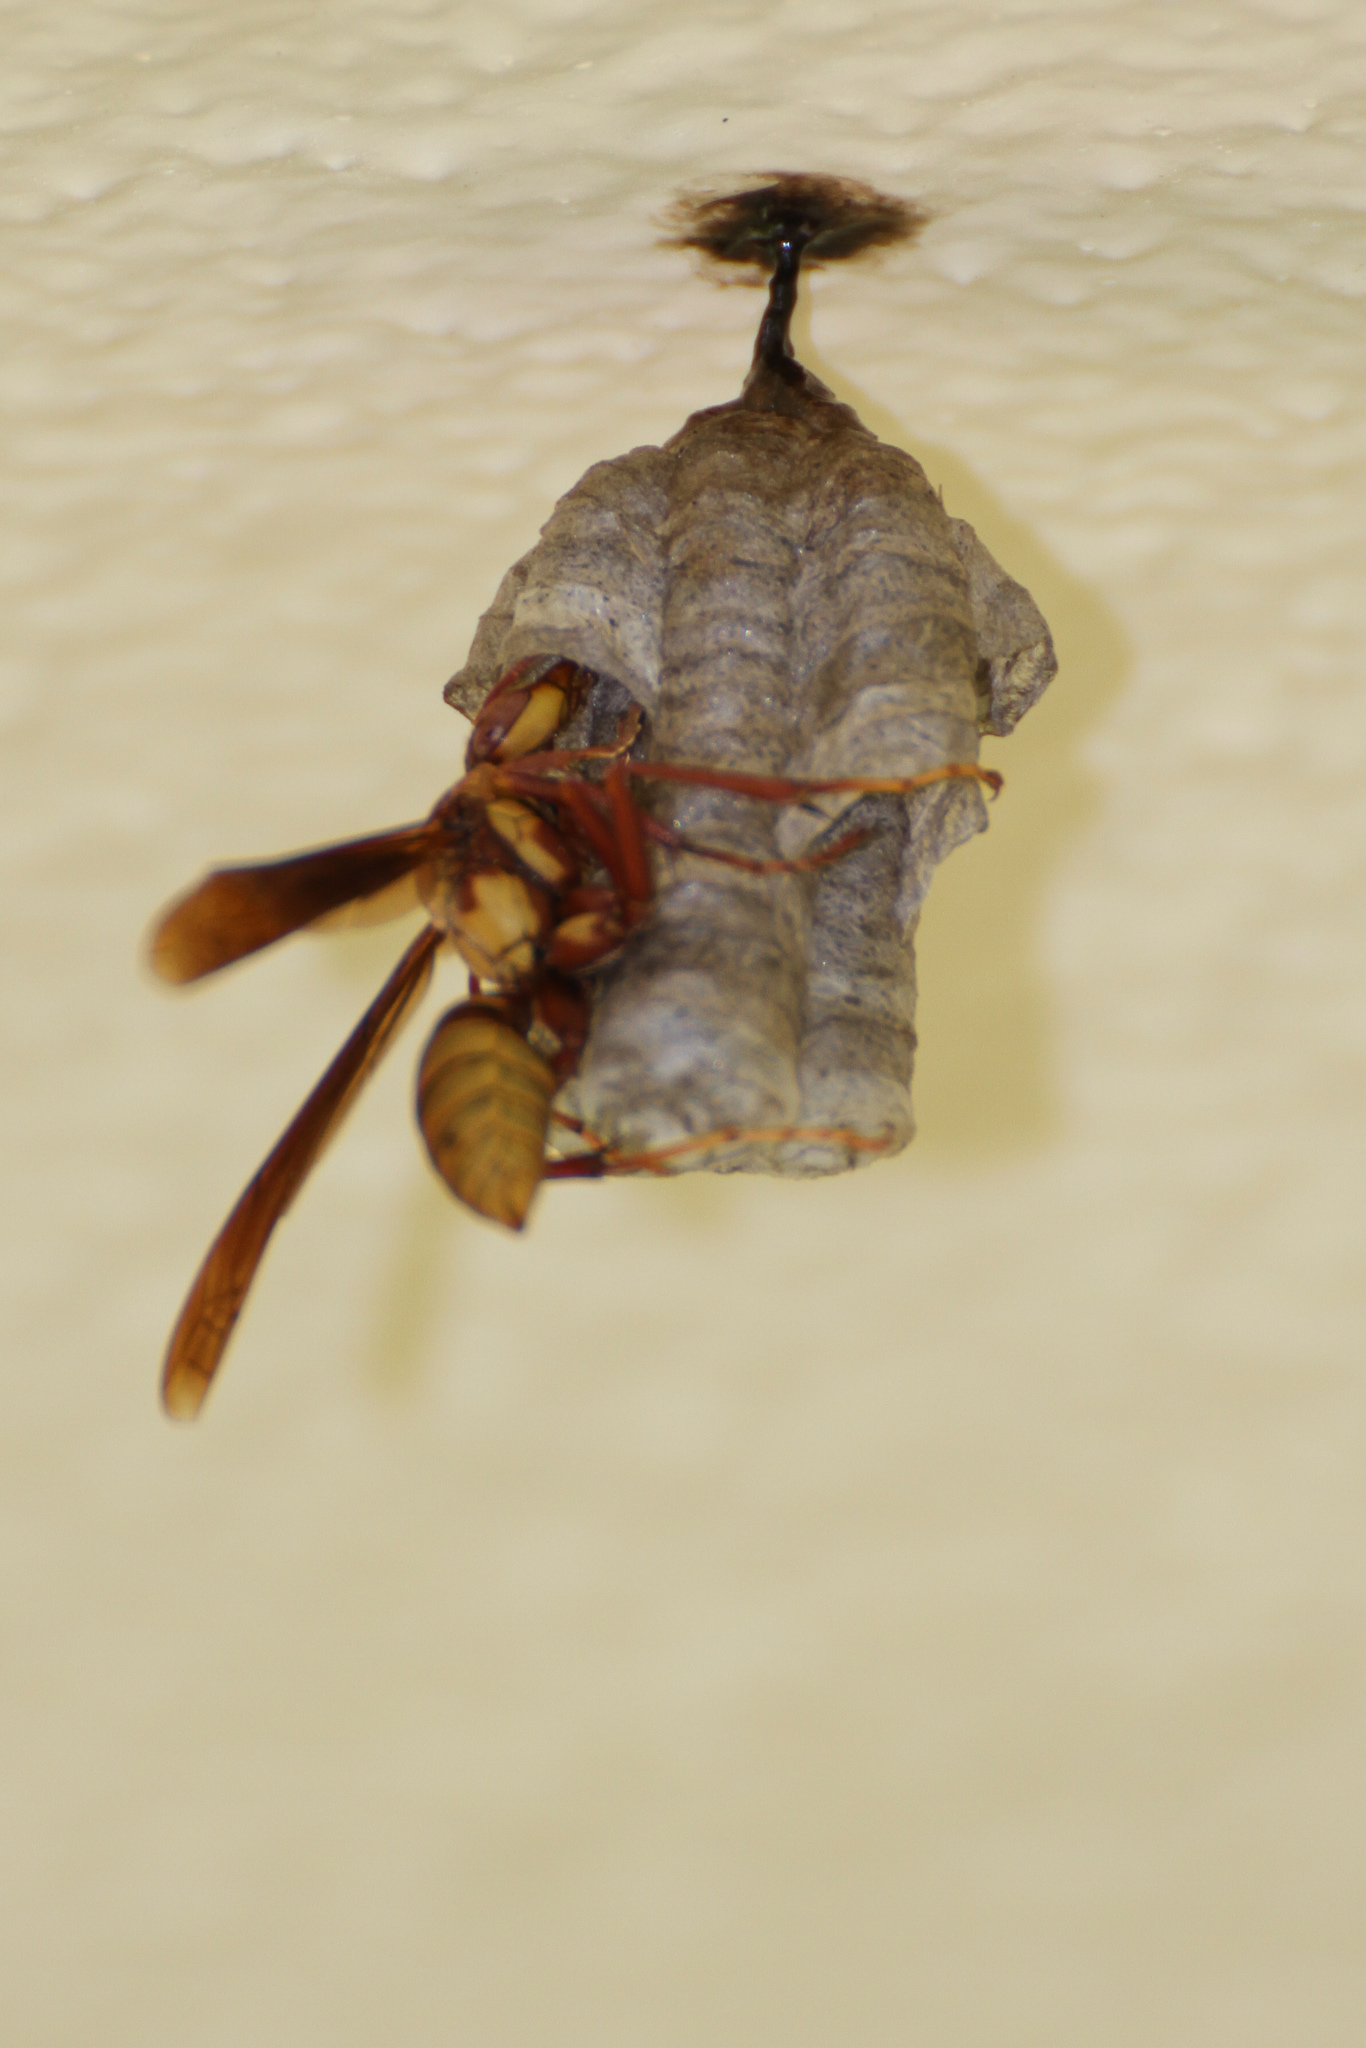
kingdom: Animalia
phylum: Arthropoda
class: Insecta
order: Hymenoptera
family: Eumenidae
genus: Polistes
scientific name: Polistes carnifex
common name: Paper wasp
